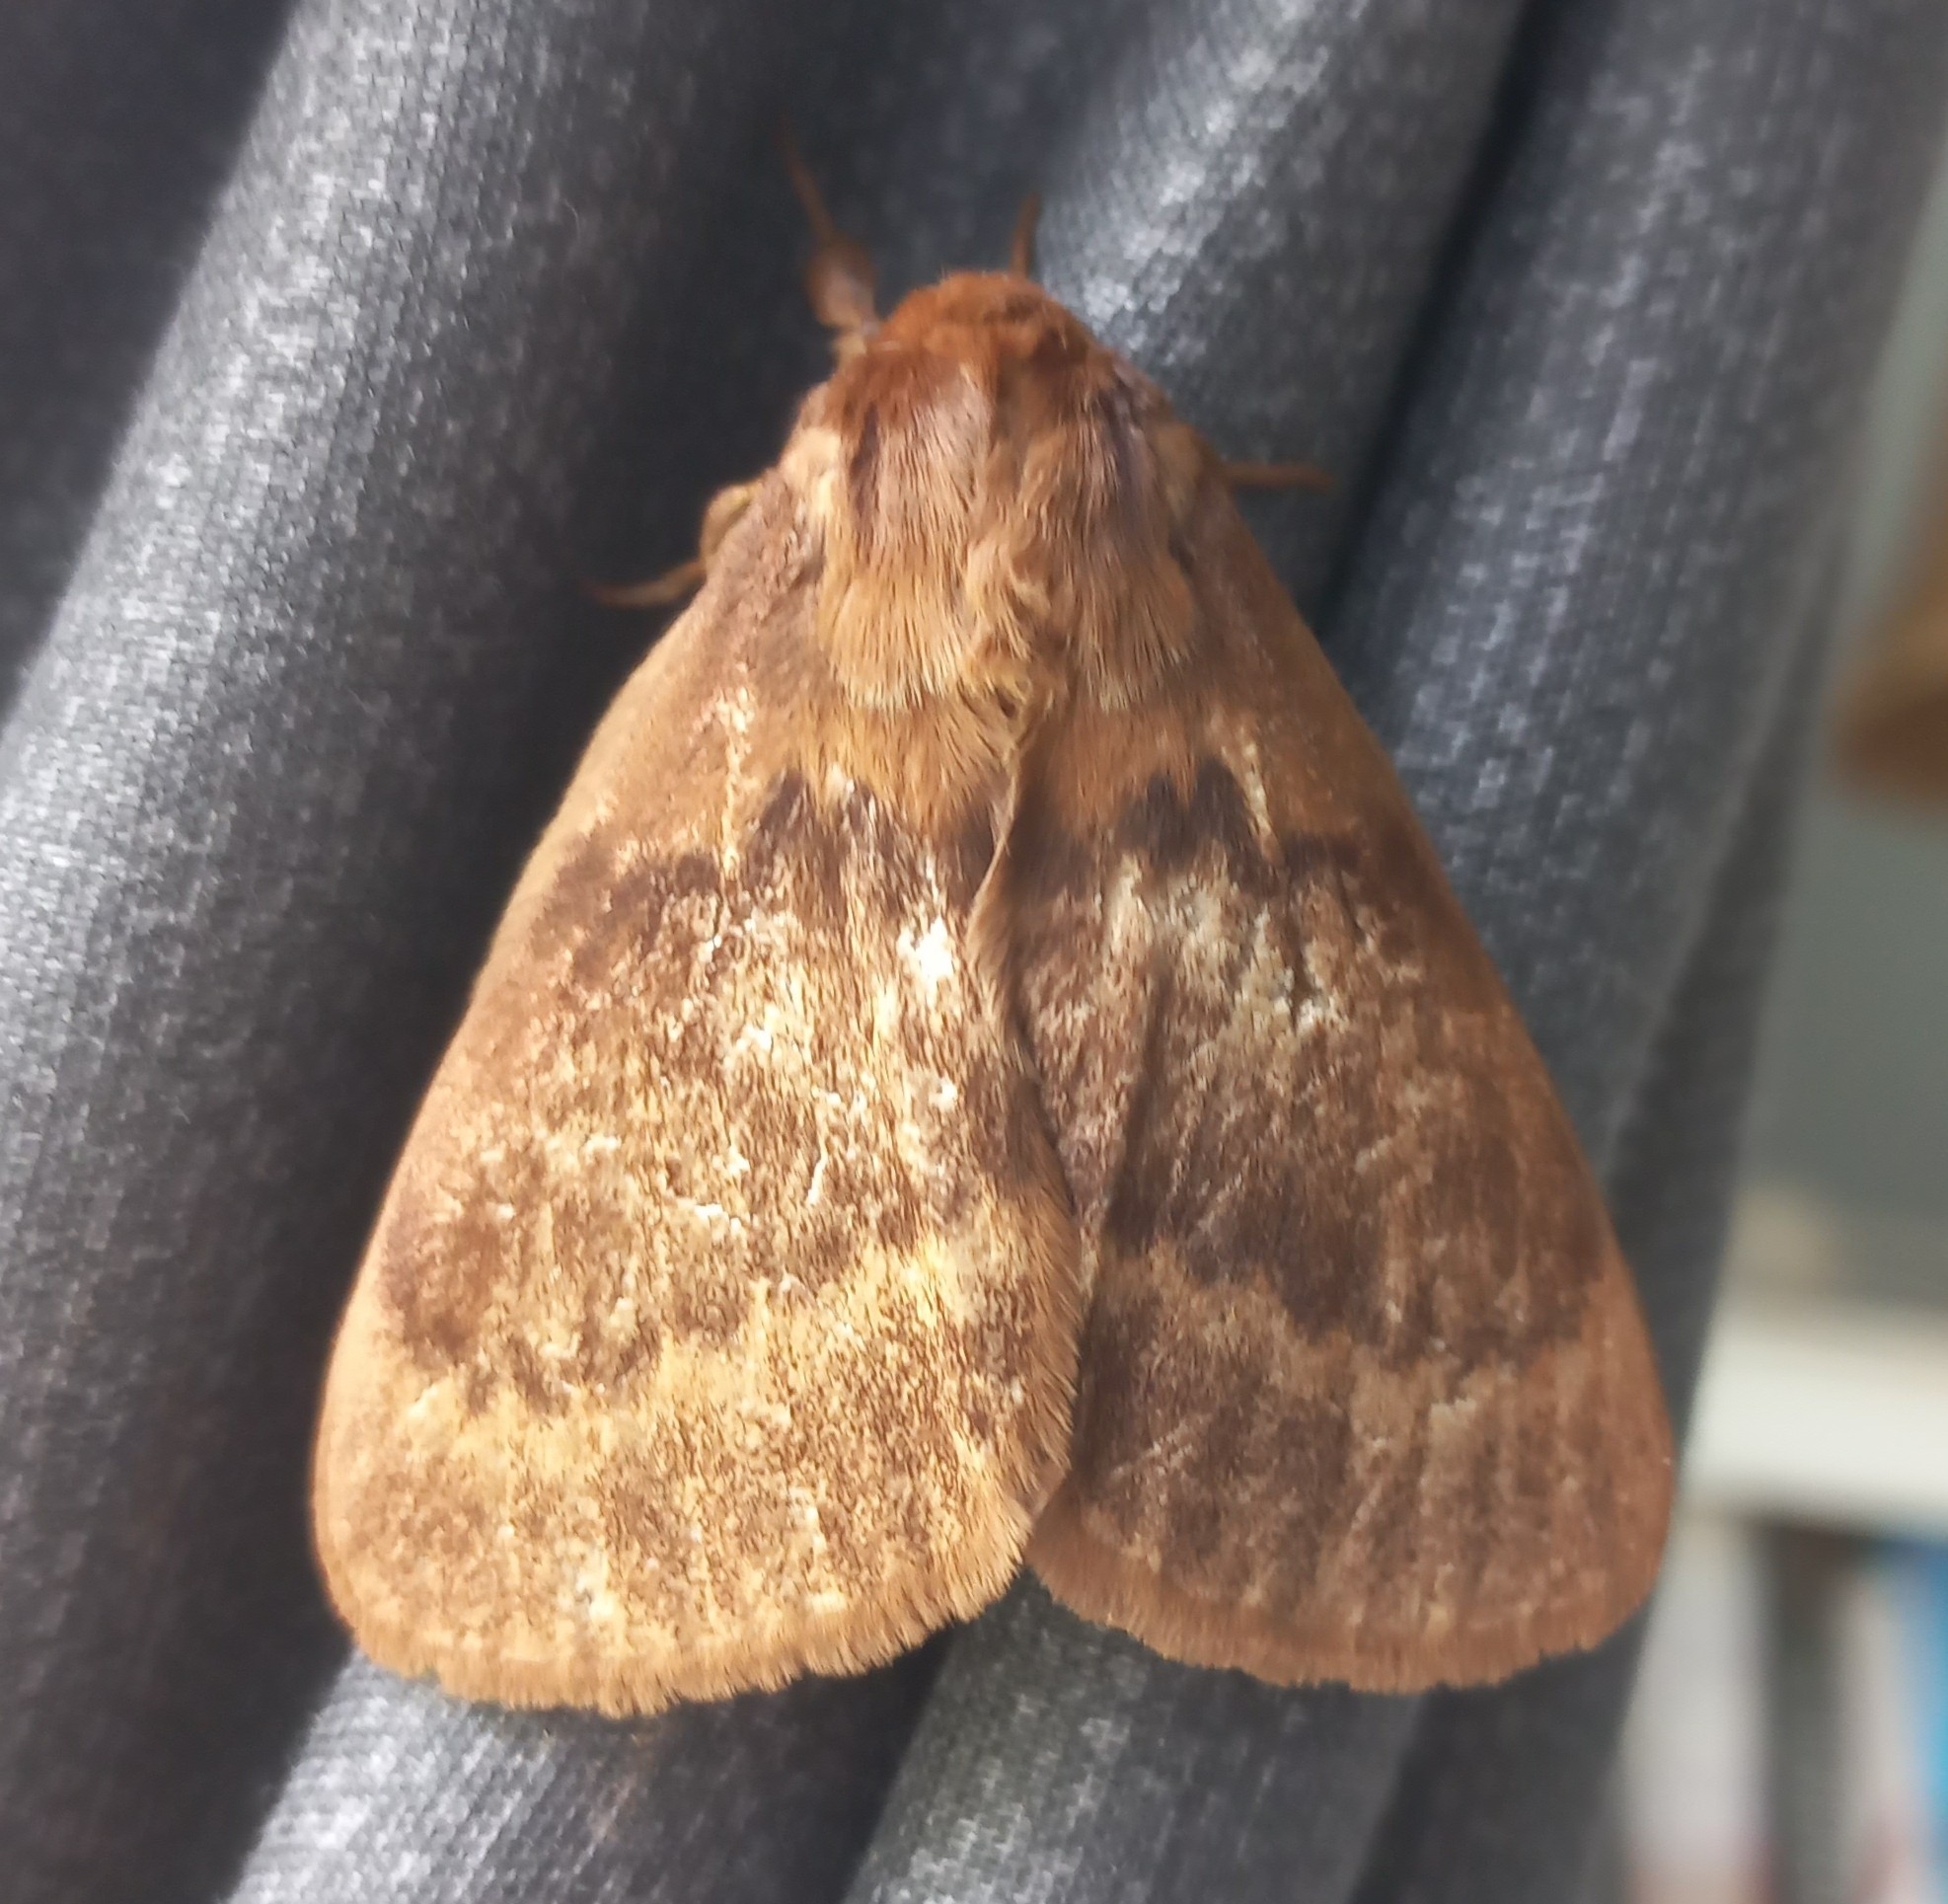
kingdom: Animalia
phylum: Arthropoda
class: Insecta
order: Lepidoptera
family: Eupterotidae
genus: Phyllalia
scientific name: Phyllalia thunbergii
